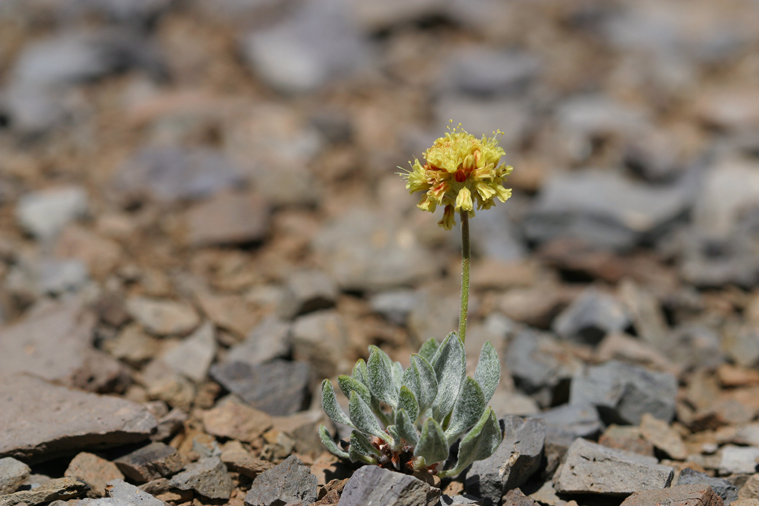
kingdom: Plantae
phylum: Tracheophyta
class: Magnoliopsida
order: Caryophyllales
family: Polygonaceae
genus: Eriogonum
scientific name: Eriogonum rosense
